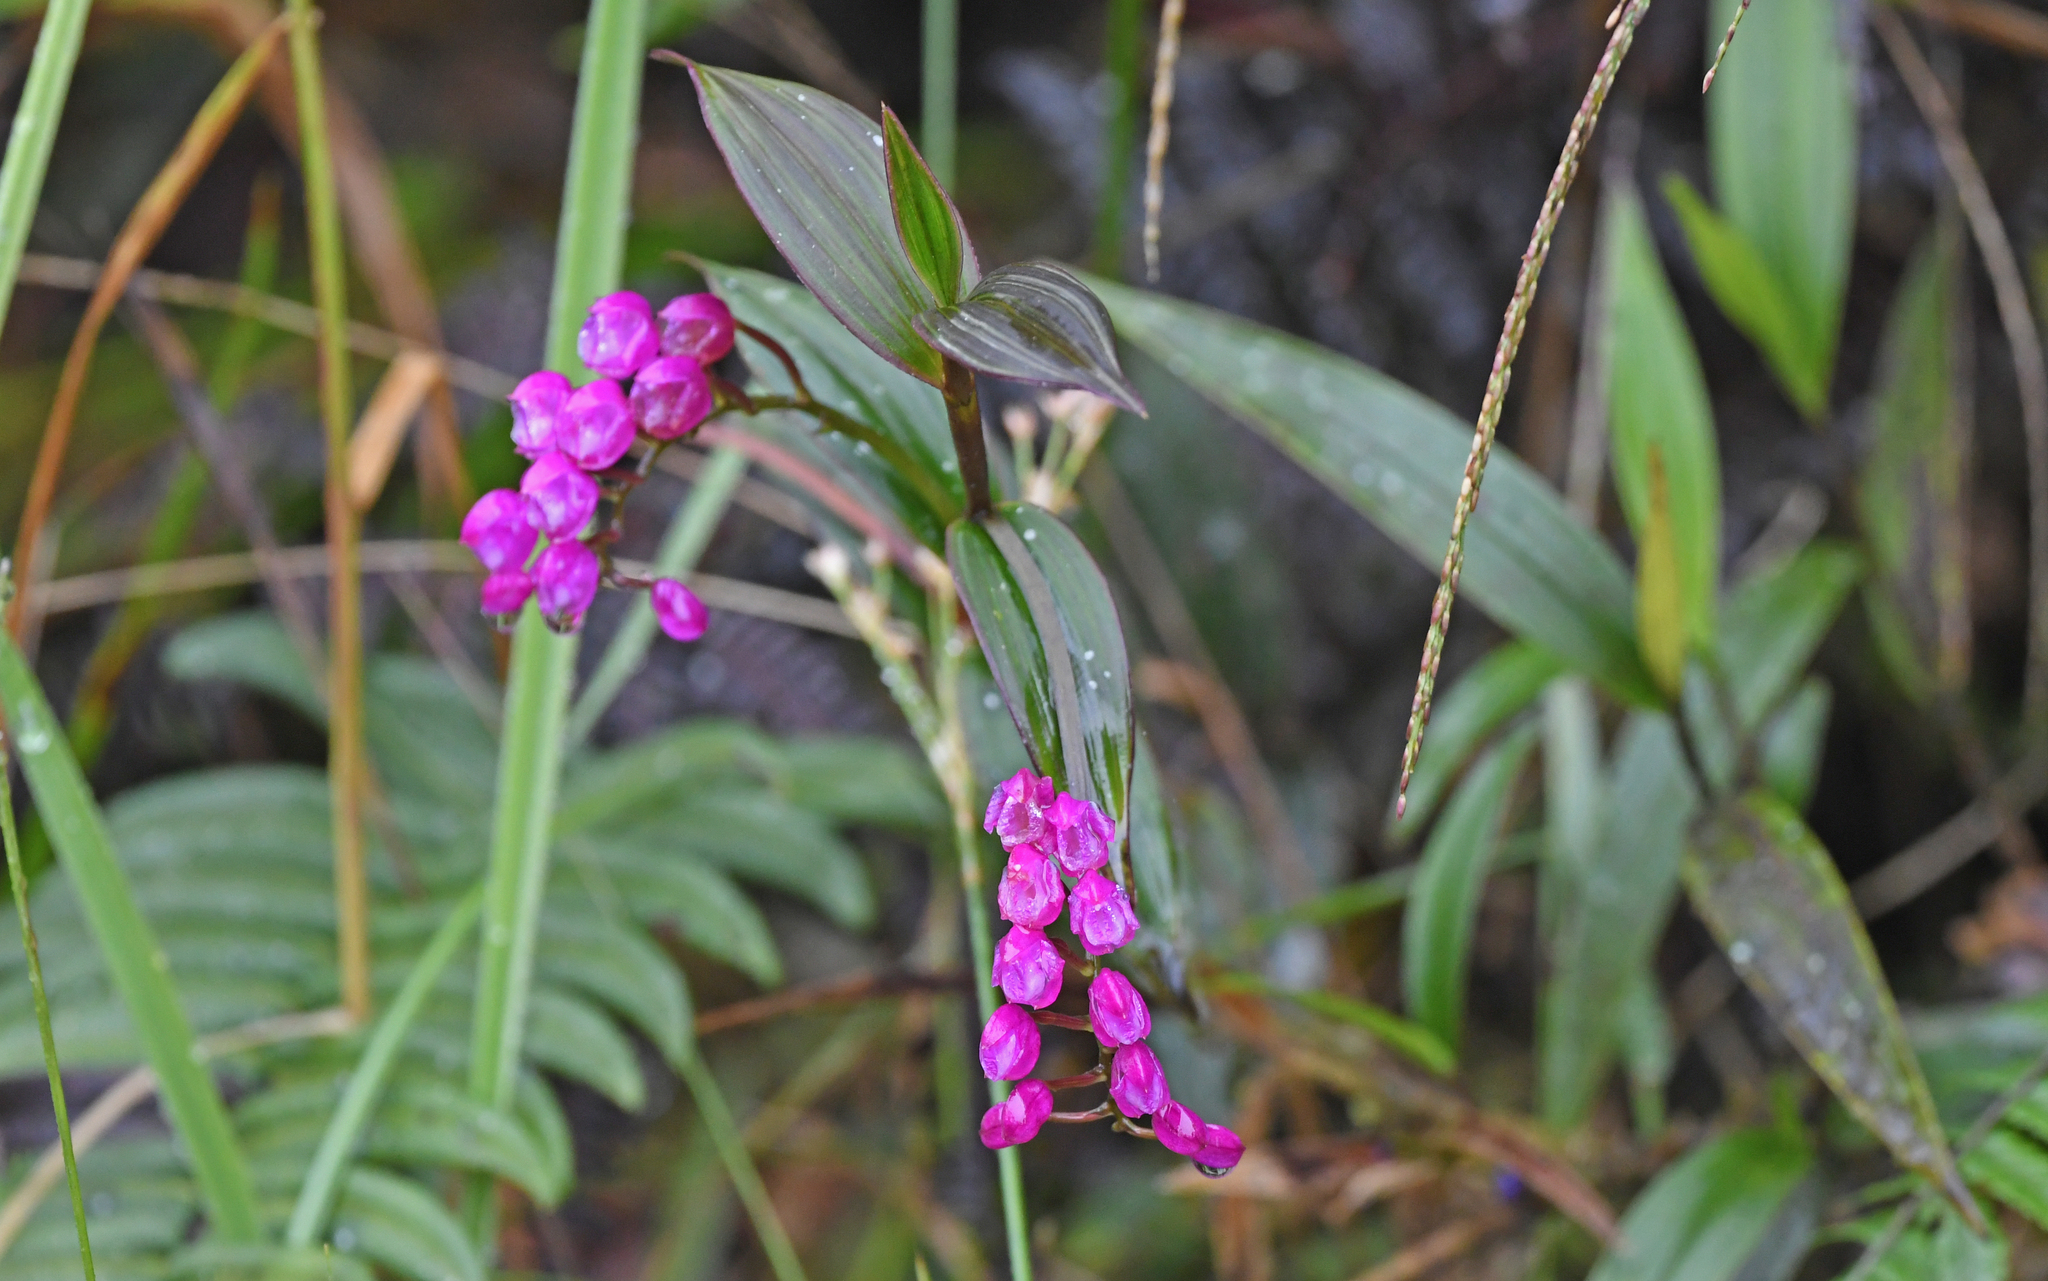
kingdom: Plantae
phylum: Tracheophyta
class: Liliopsida
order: Asparagales
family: Orchidaceae
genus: Sertifera
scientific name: Sertifera purpurea
